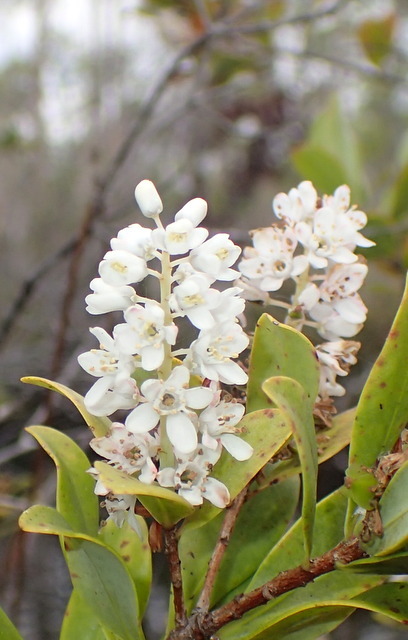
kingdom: Plantae
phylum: Tracheophyta
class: Magnoliopsida
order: Ericales
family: Cyrillaceae
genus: Cliftonia
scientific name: Cliftonia monophylla
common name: Titi
